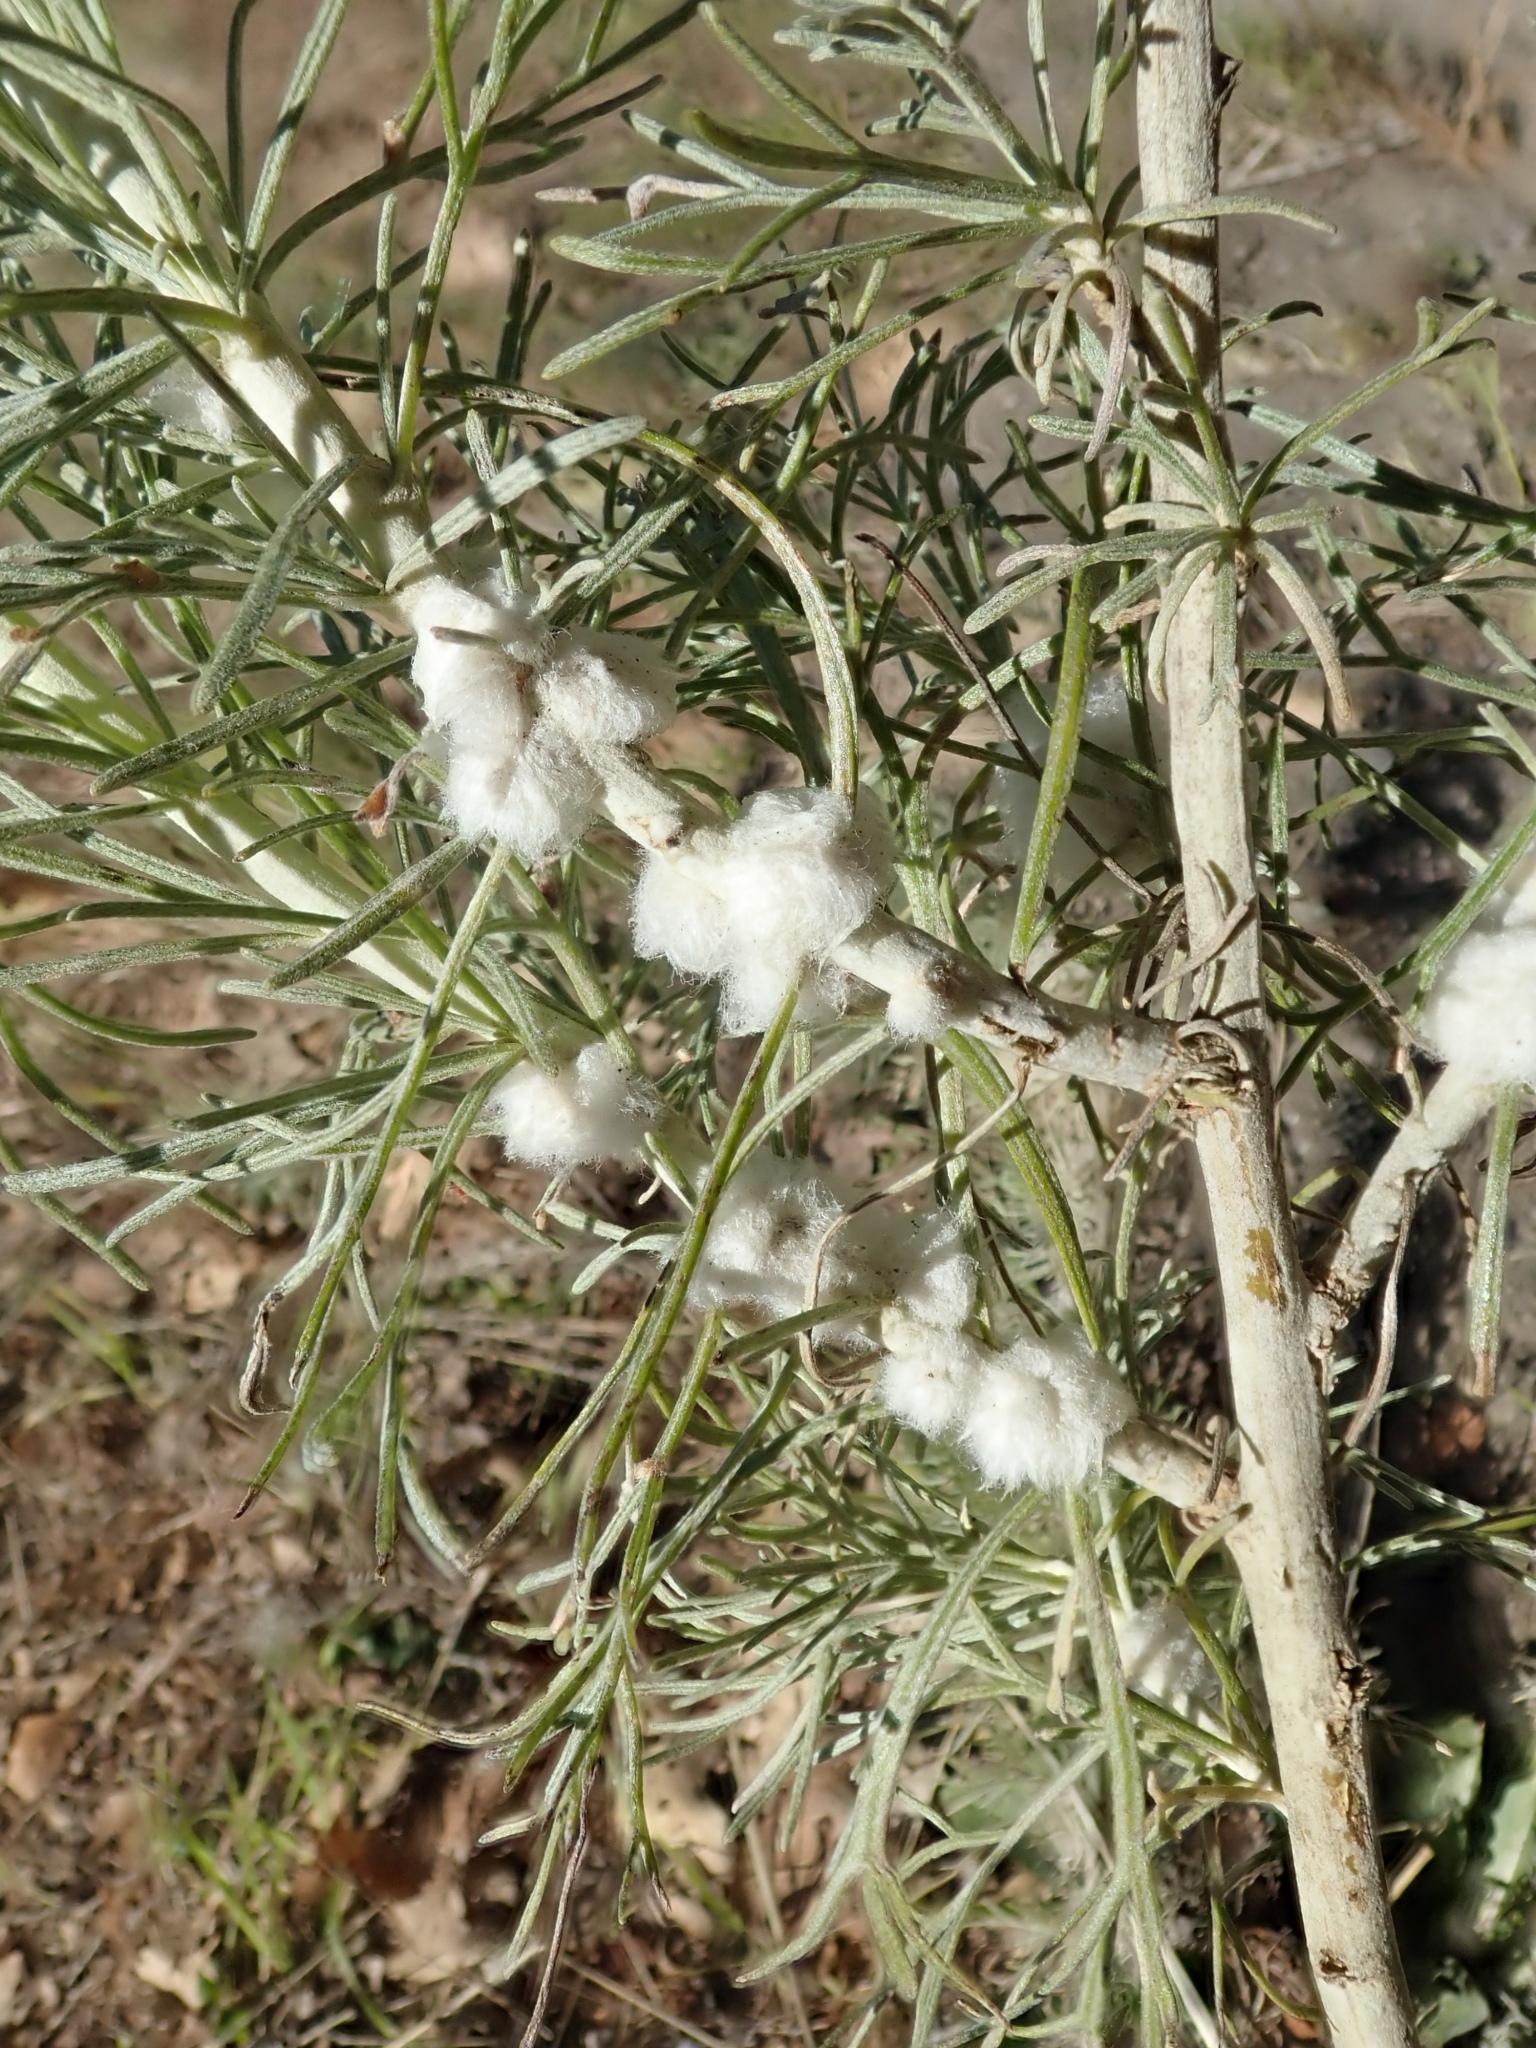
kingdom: Animalia
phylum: Arthropoda
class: Insecta
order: Diptera
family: Cecidomyiidae
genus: Rhopalomyia
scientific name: Rhopalomyia floccosa
